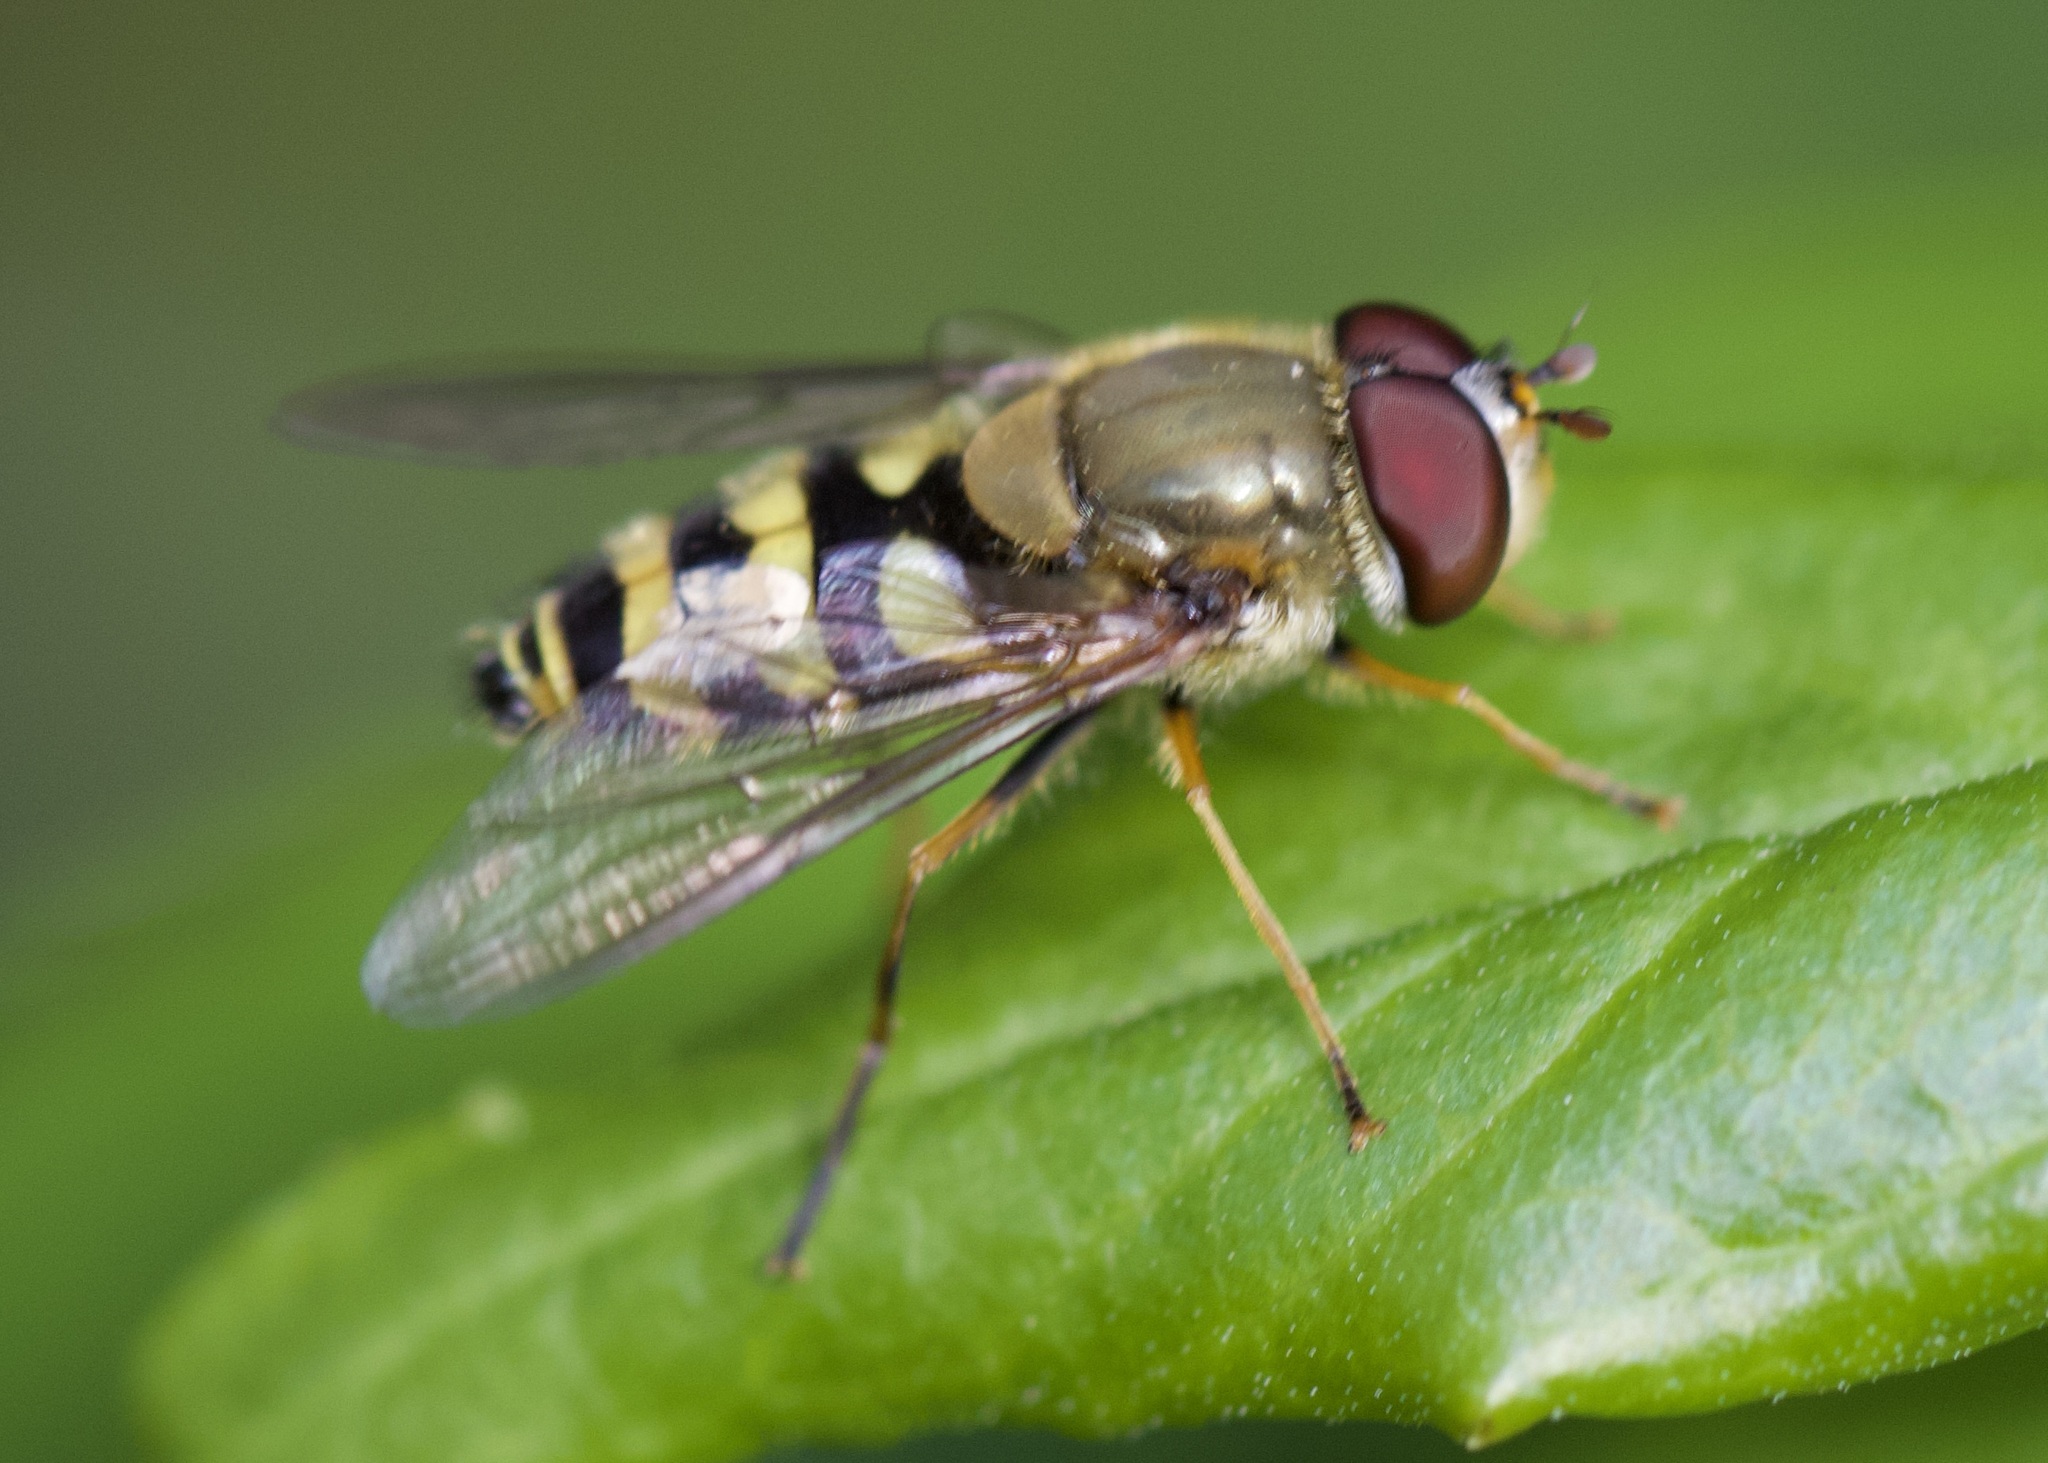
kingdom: Animalia
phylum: Arthropoda
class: Insecta
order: Diptera
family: Syrphidae
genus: Syrphus
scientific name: Syrphus
